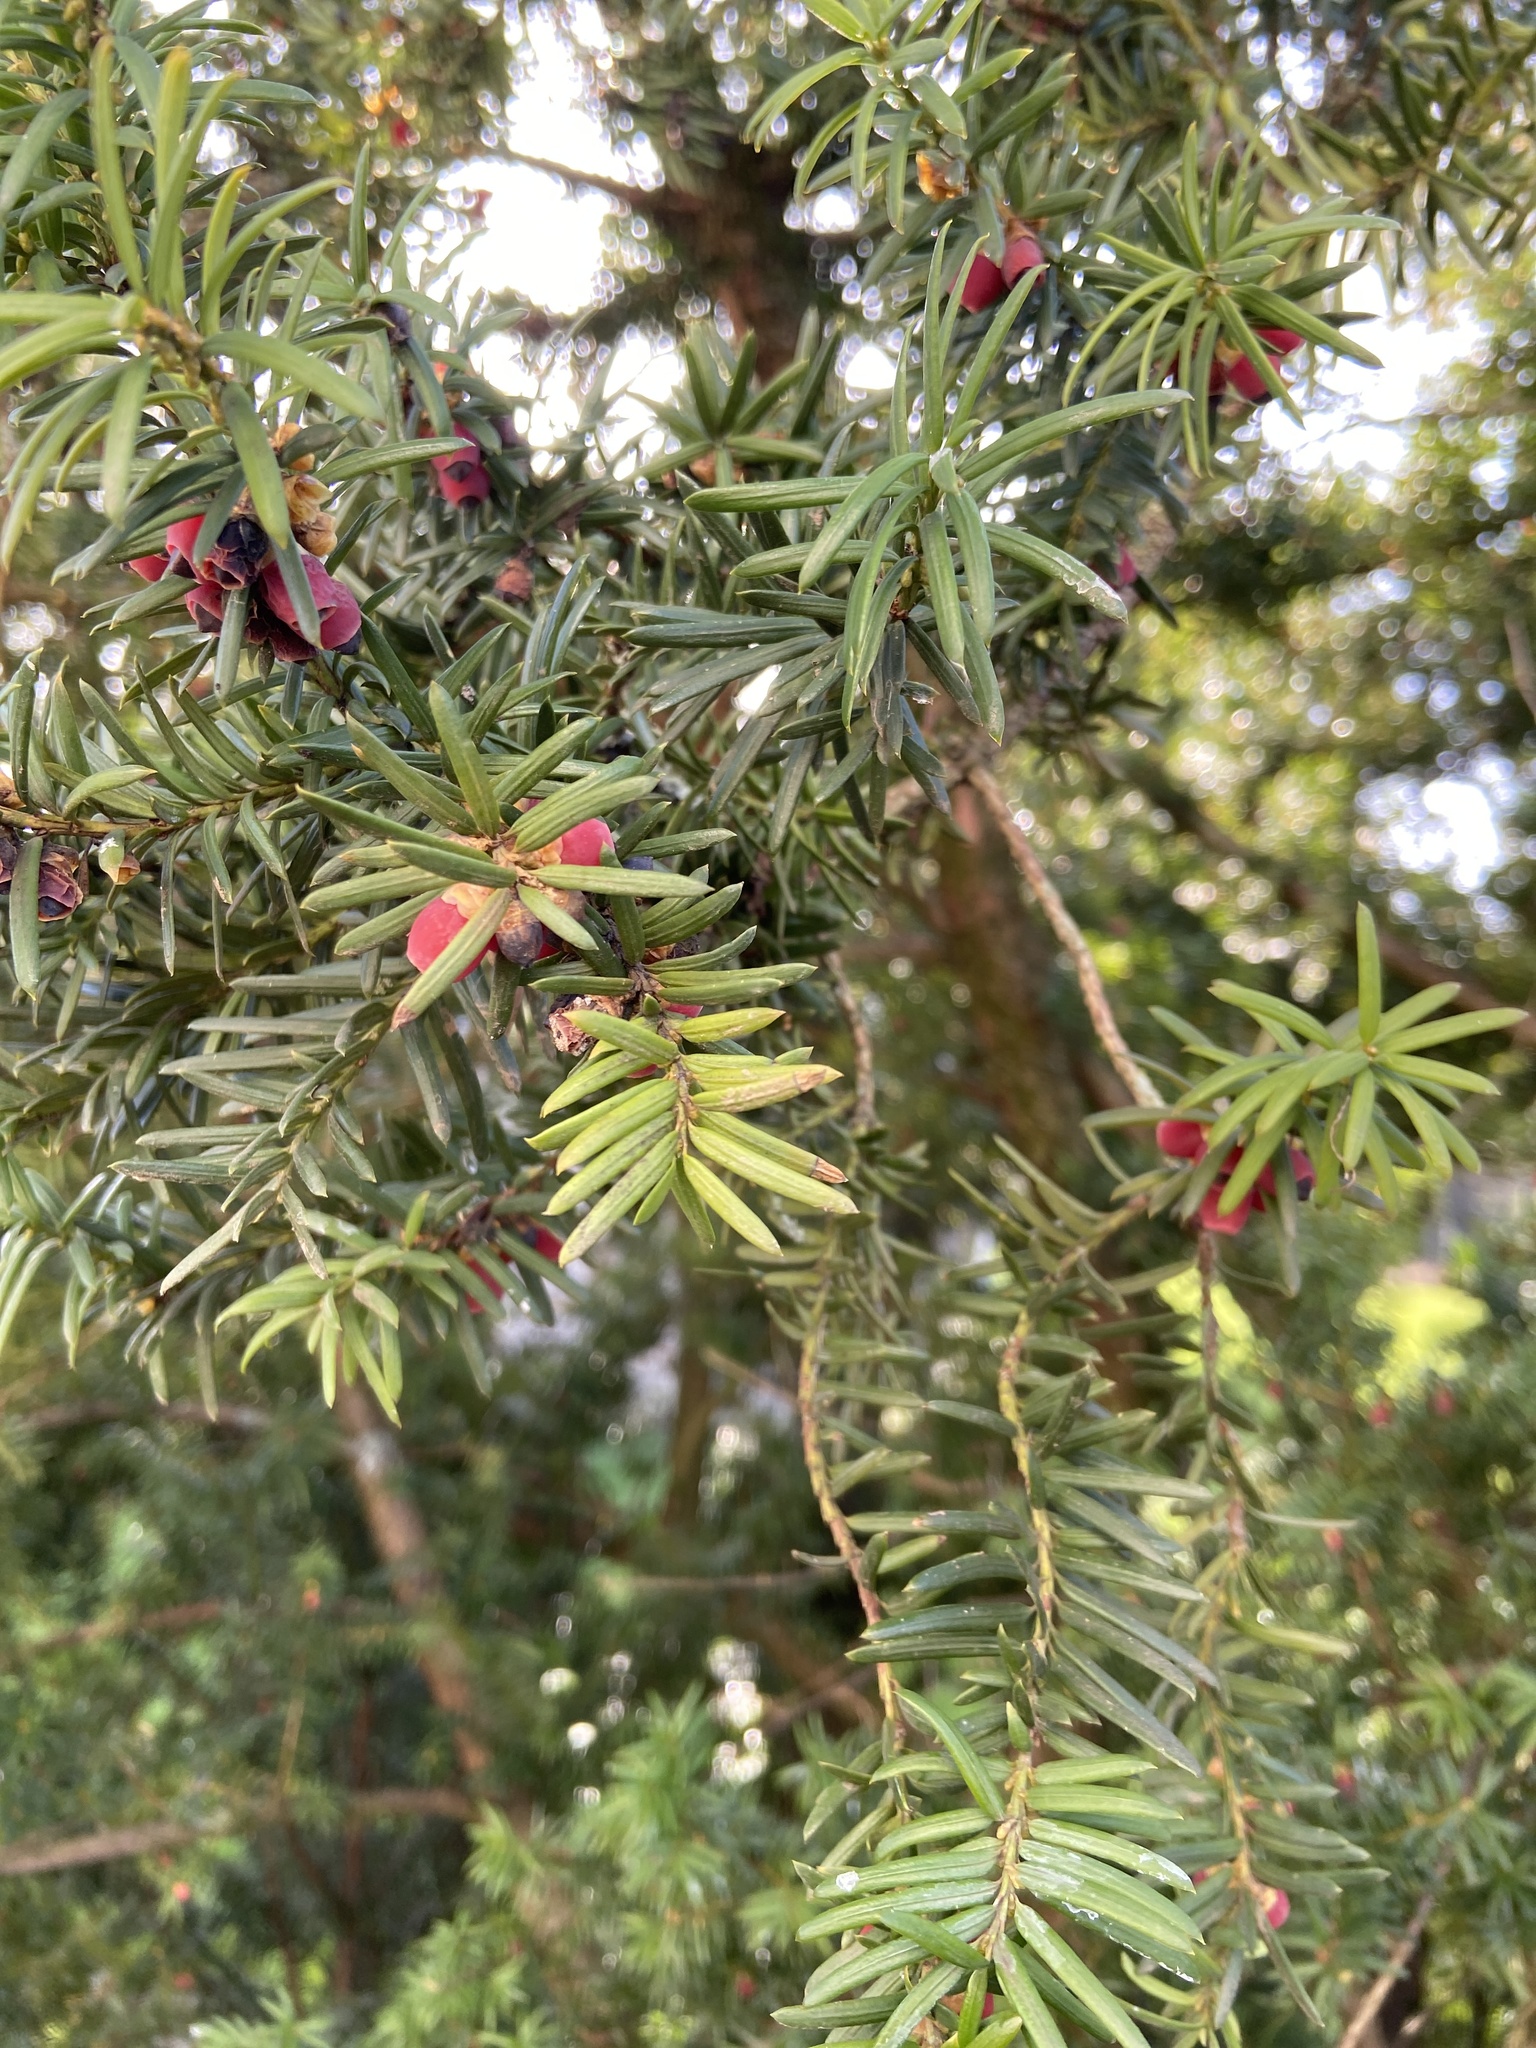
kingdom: Plantae
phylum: Tracheophyta
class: Pinopsida
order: Pinales
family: Taxaceae
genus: Taxus
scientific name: Taxus baccata
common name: Yew
